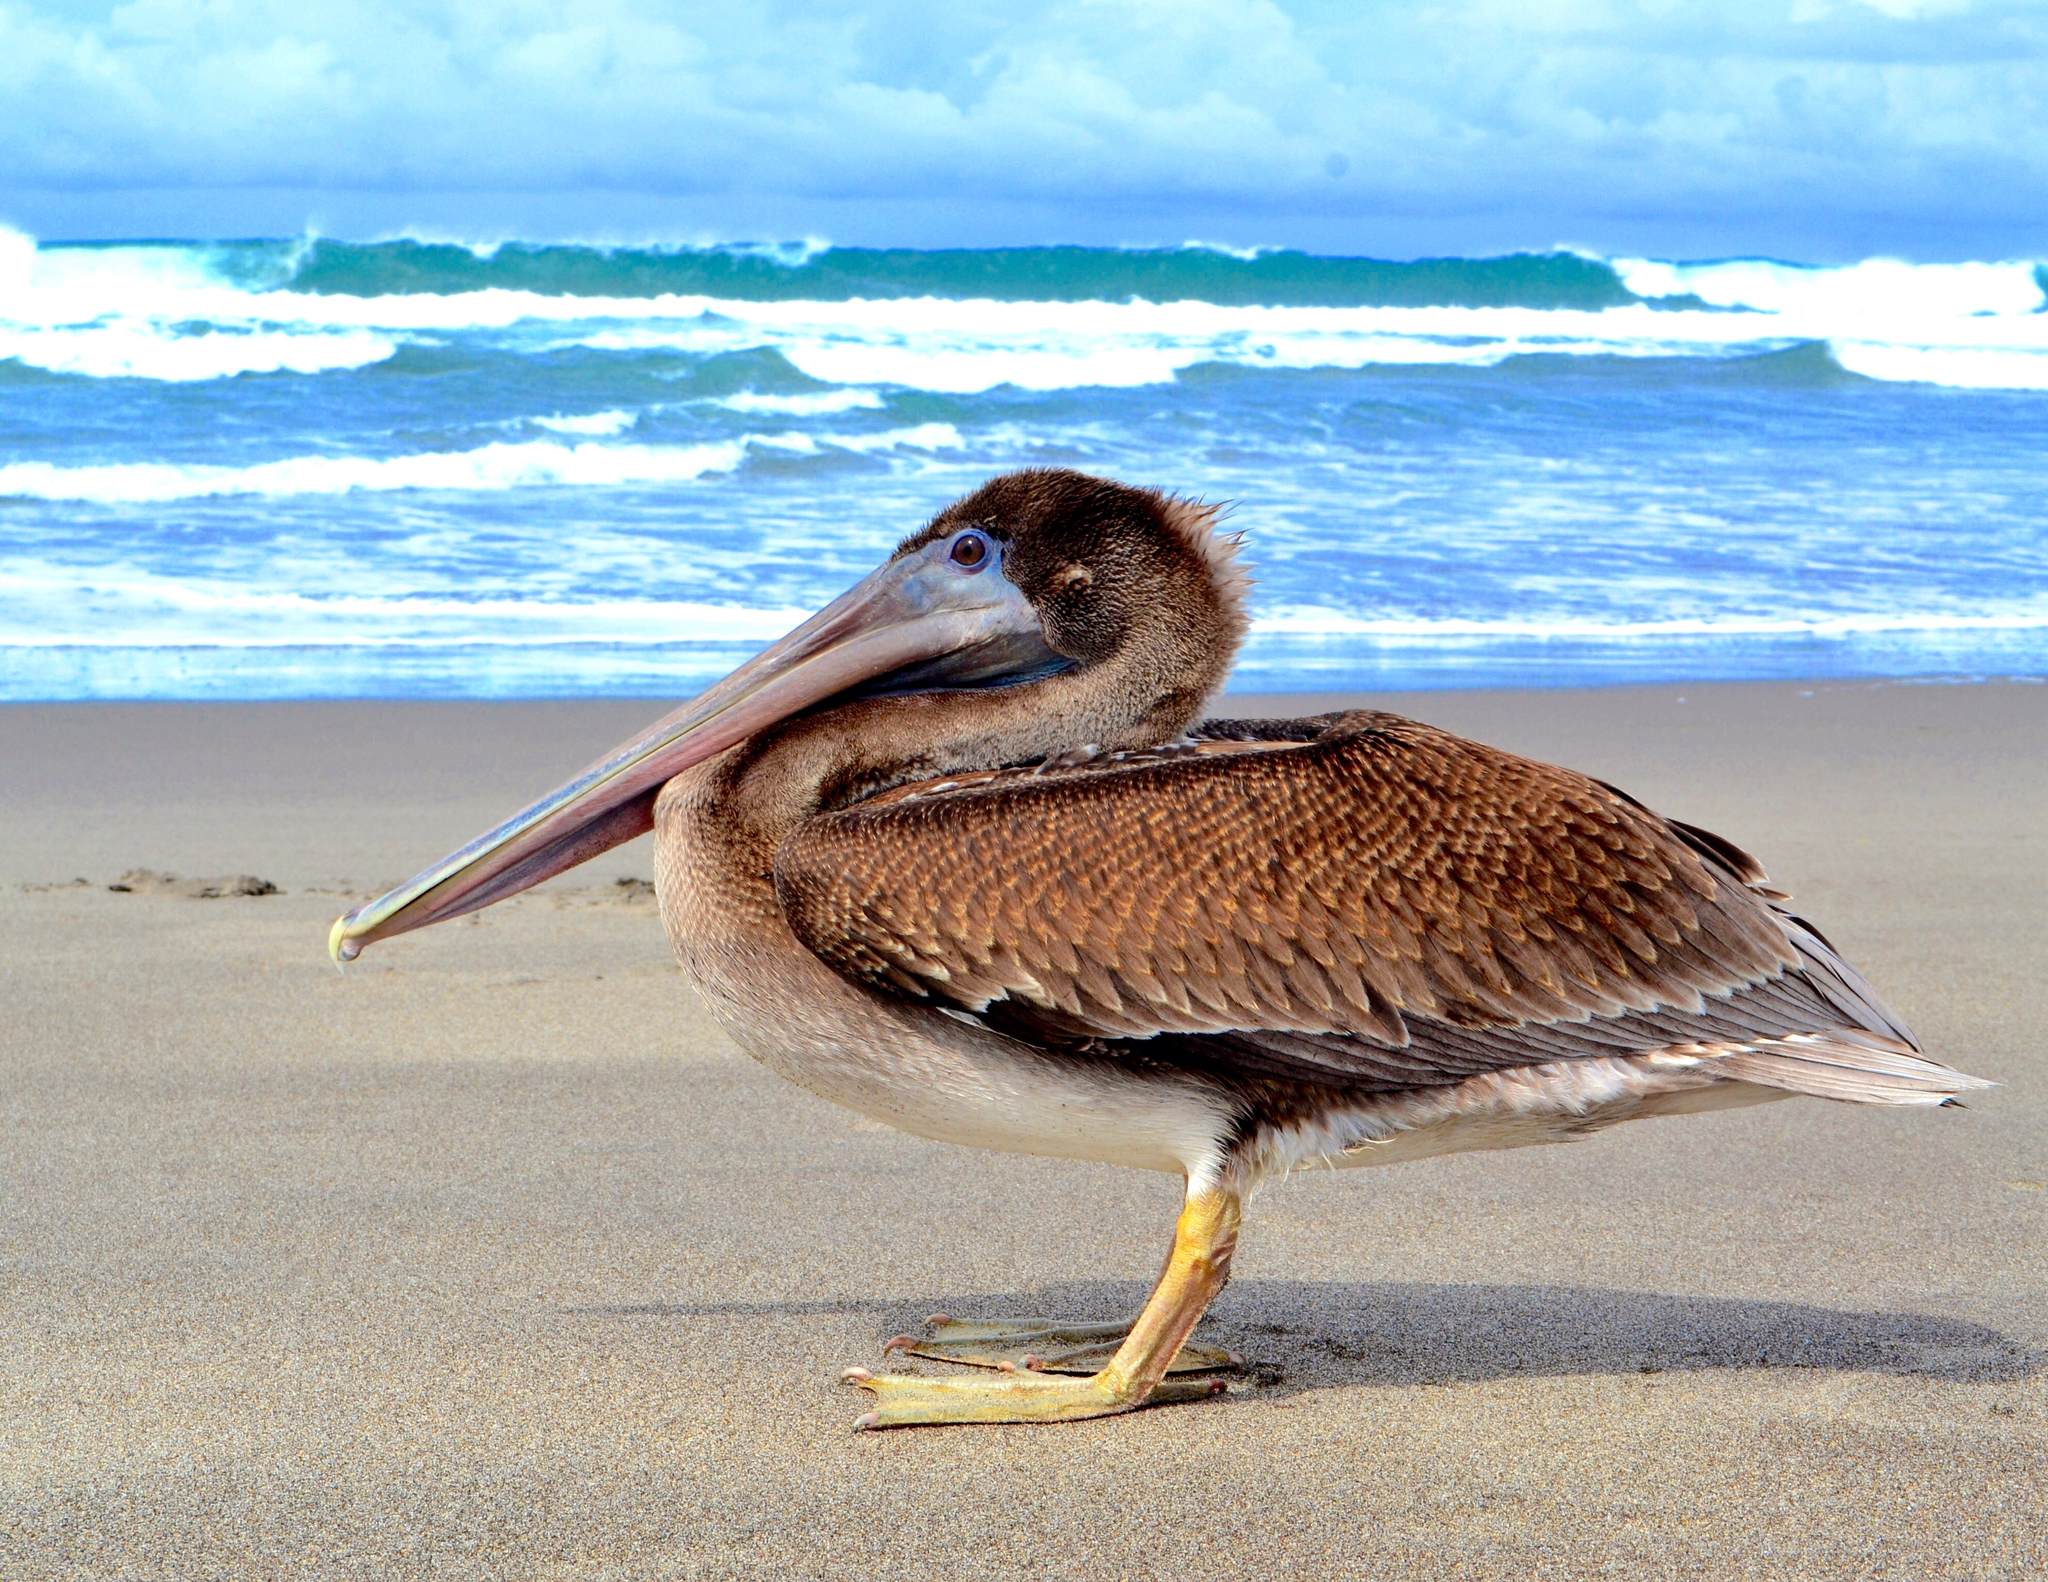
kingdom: Animalia
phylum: Chordata
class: Aves
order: Pelecaniformes
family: Pelecanidae
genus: Pelecanus
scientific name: Pelecanus occidentalis
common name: Brown pelican
